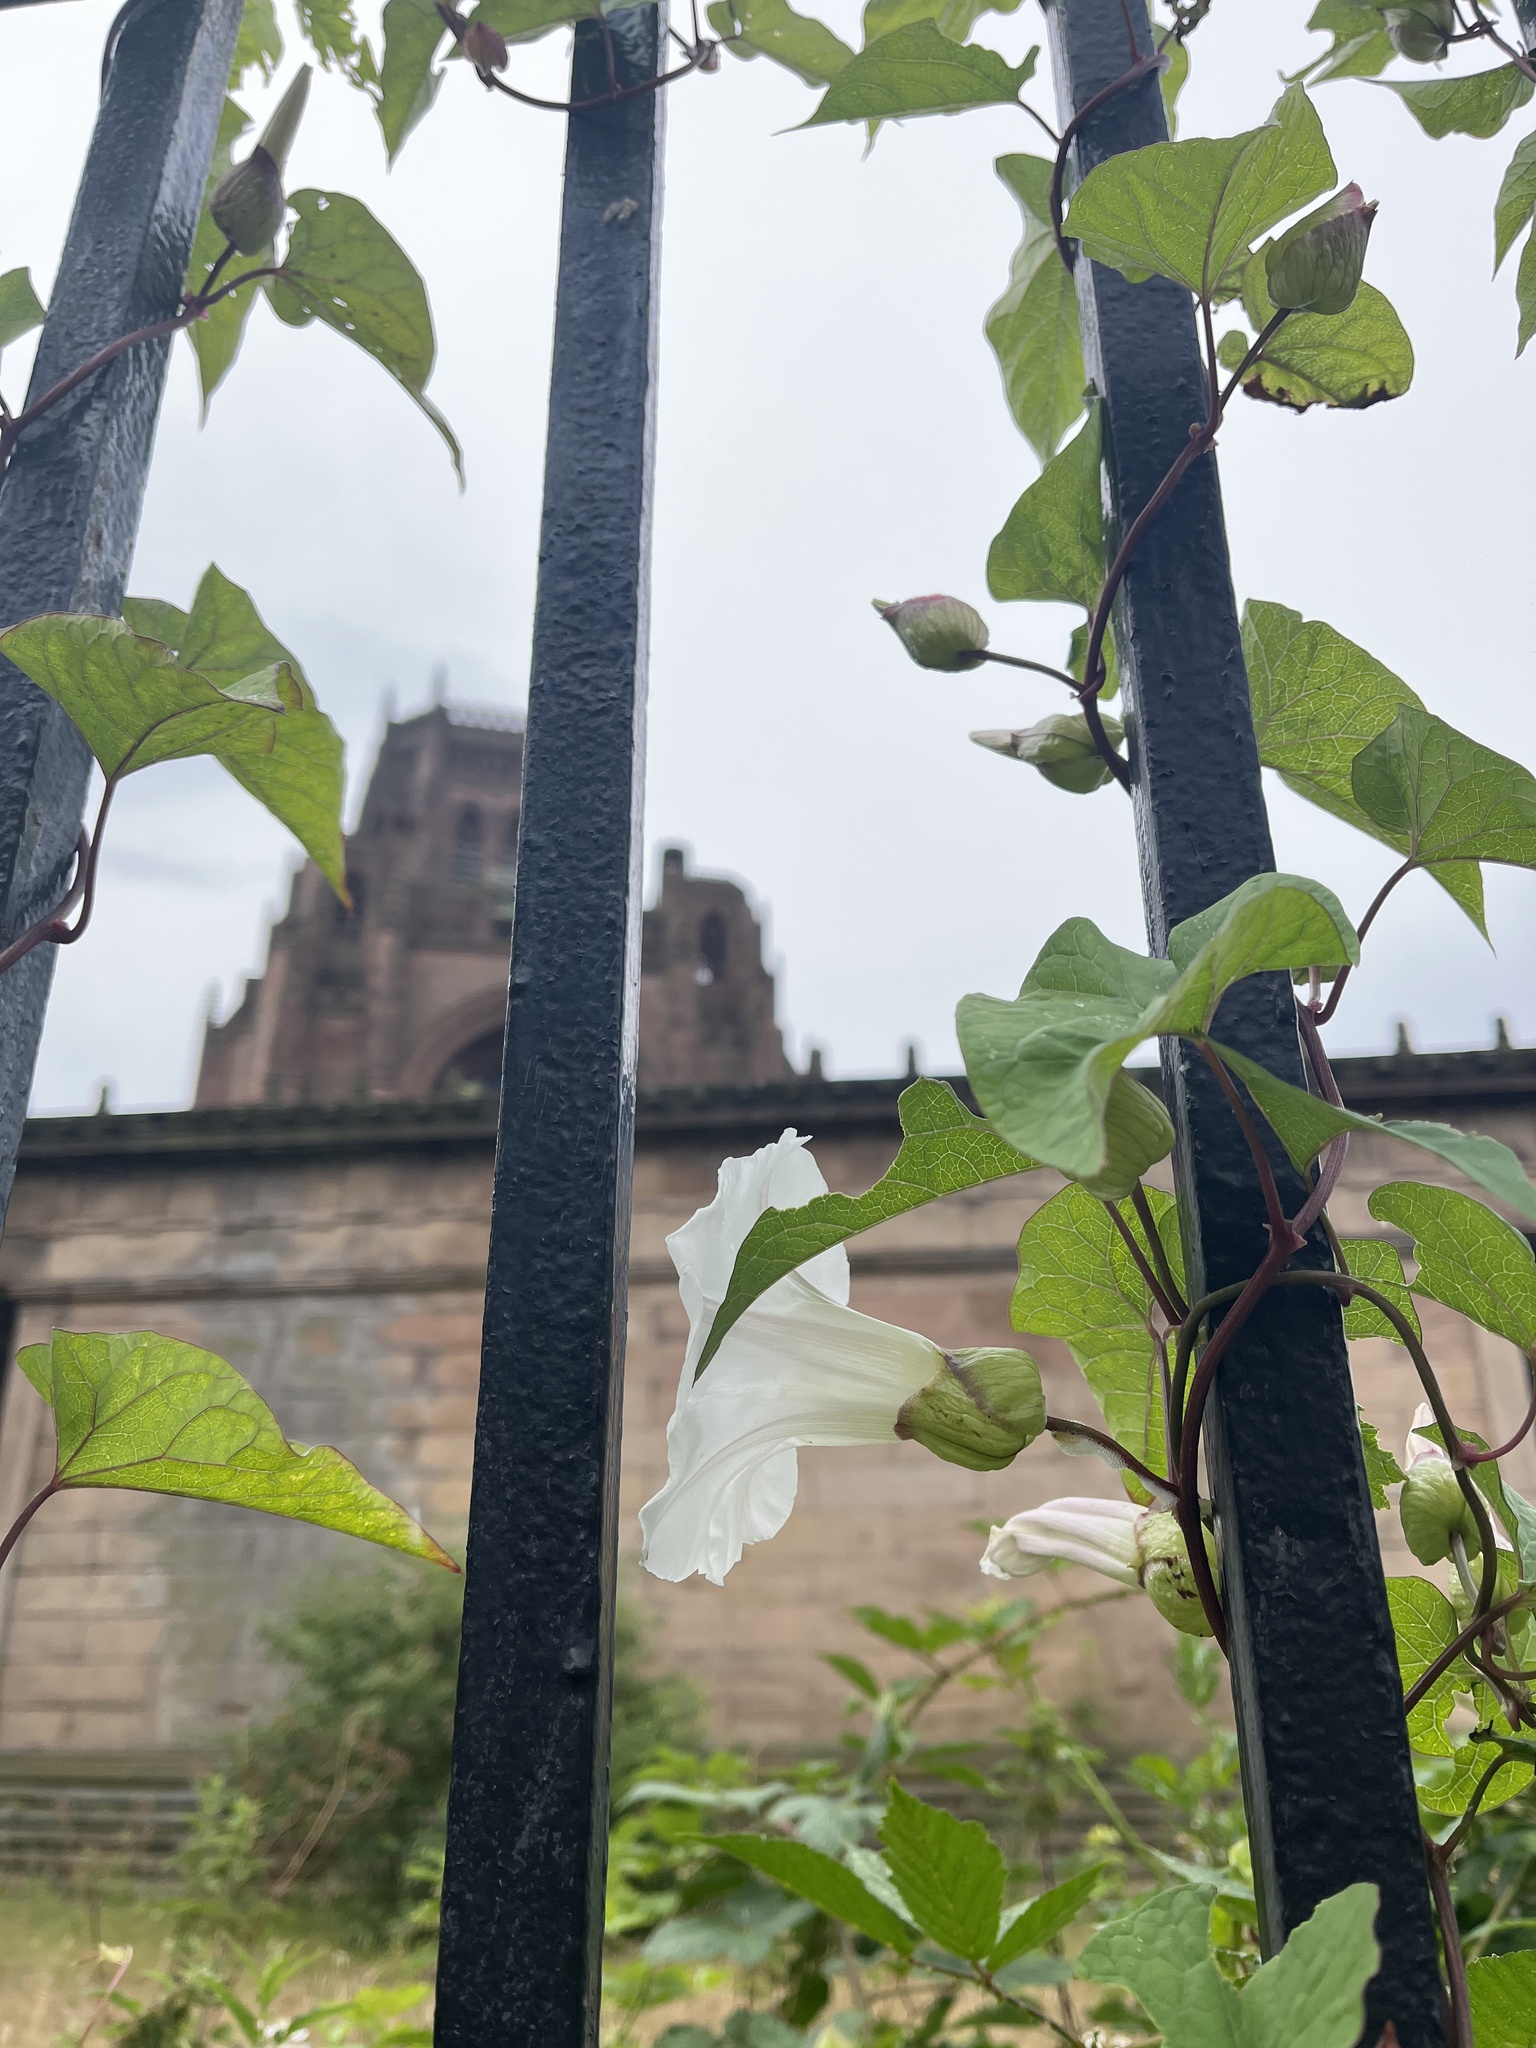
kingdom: Plantae
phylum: Tracheophyta
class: Magnoliopsida
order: Solanales
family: Convolvulaceae
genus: Calystegia
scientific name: Calystegia silvatica
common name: Large bindweed
